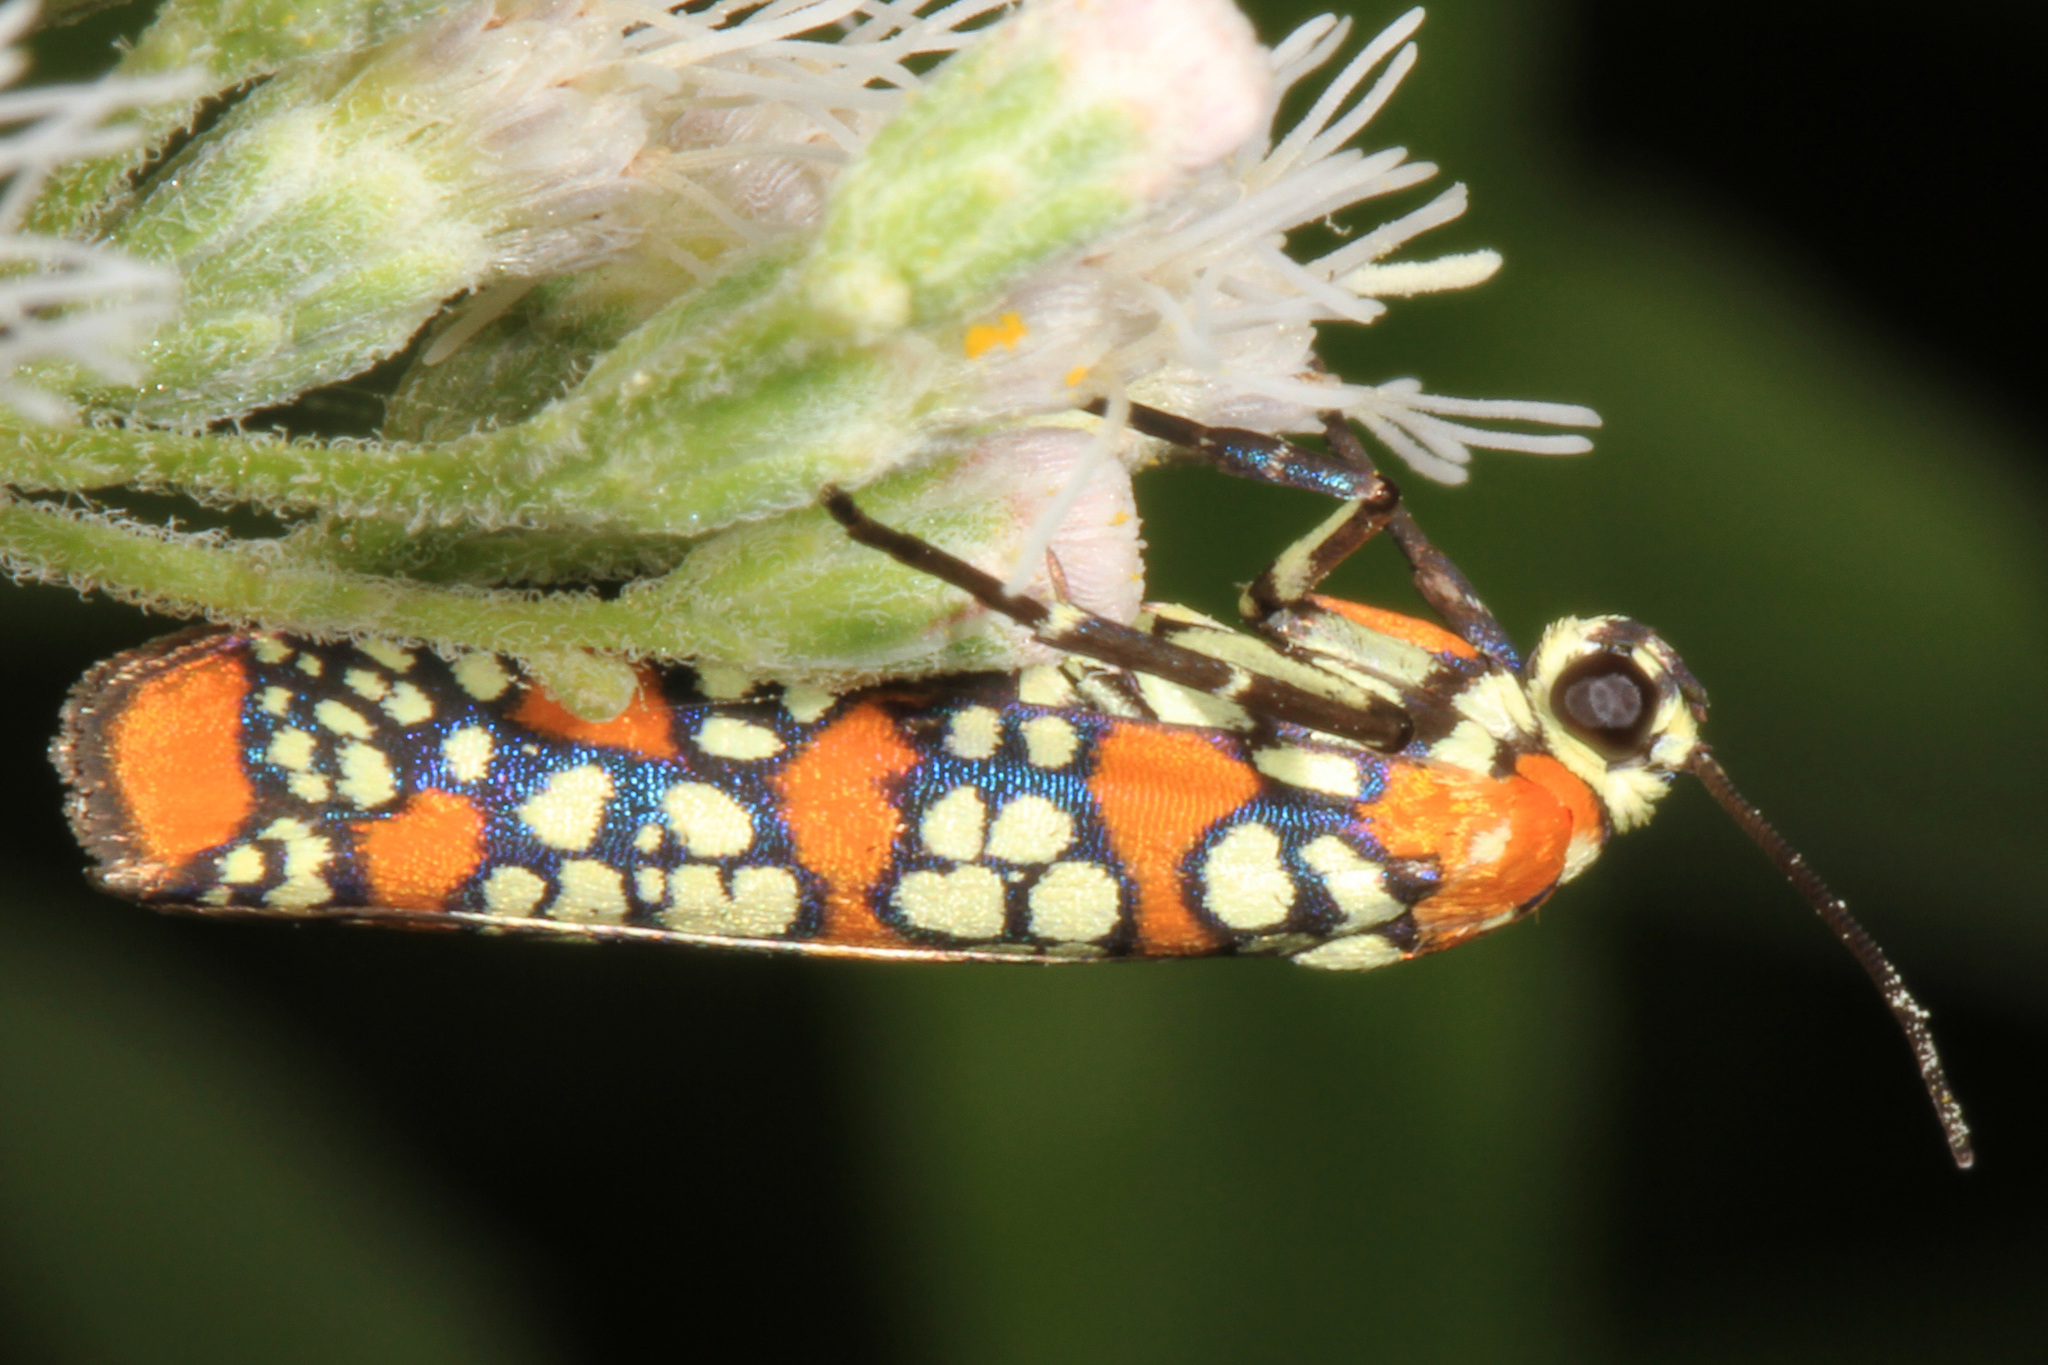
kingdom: Animalia
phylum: Arthropoda
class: Insecta
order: Lepidoptera
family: Attevidae
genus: Atteva
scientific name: Atteva punctella
